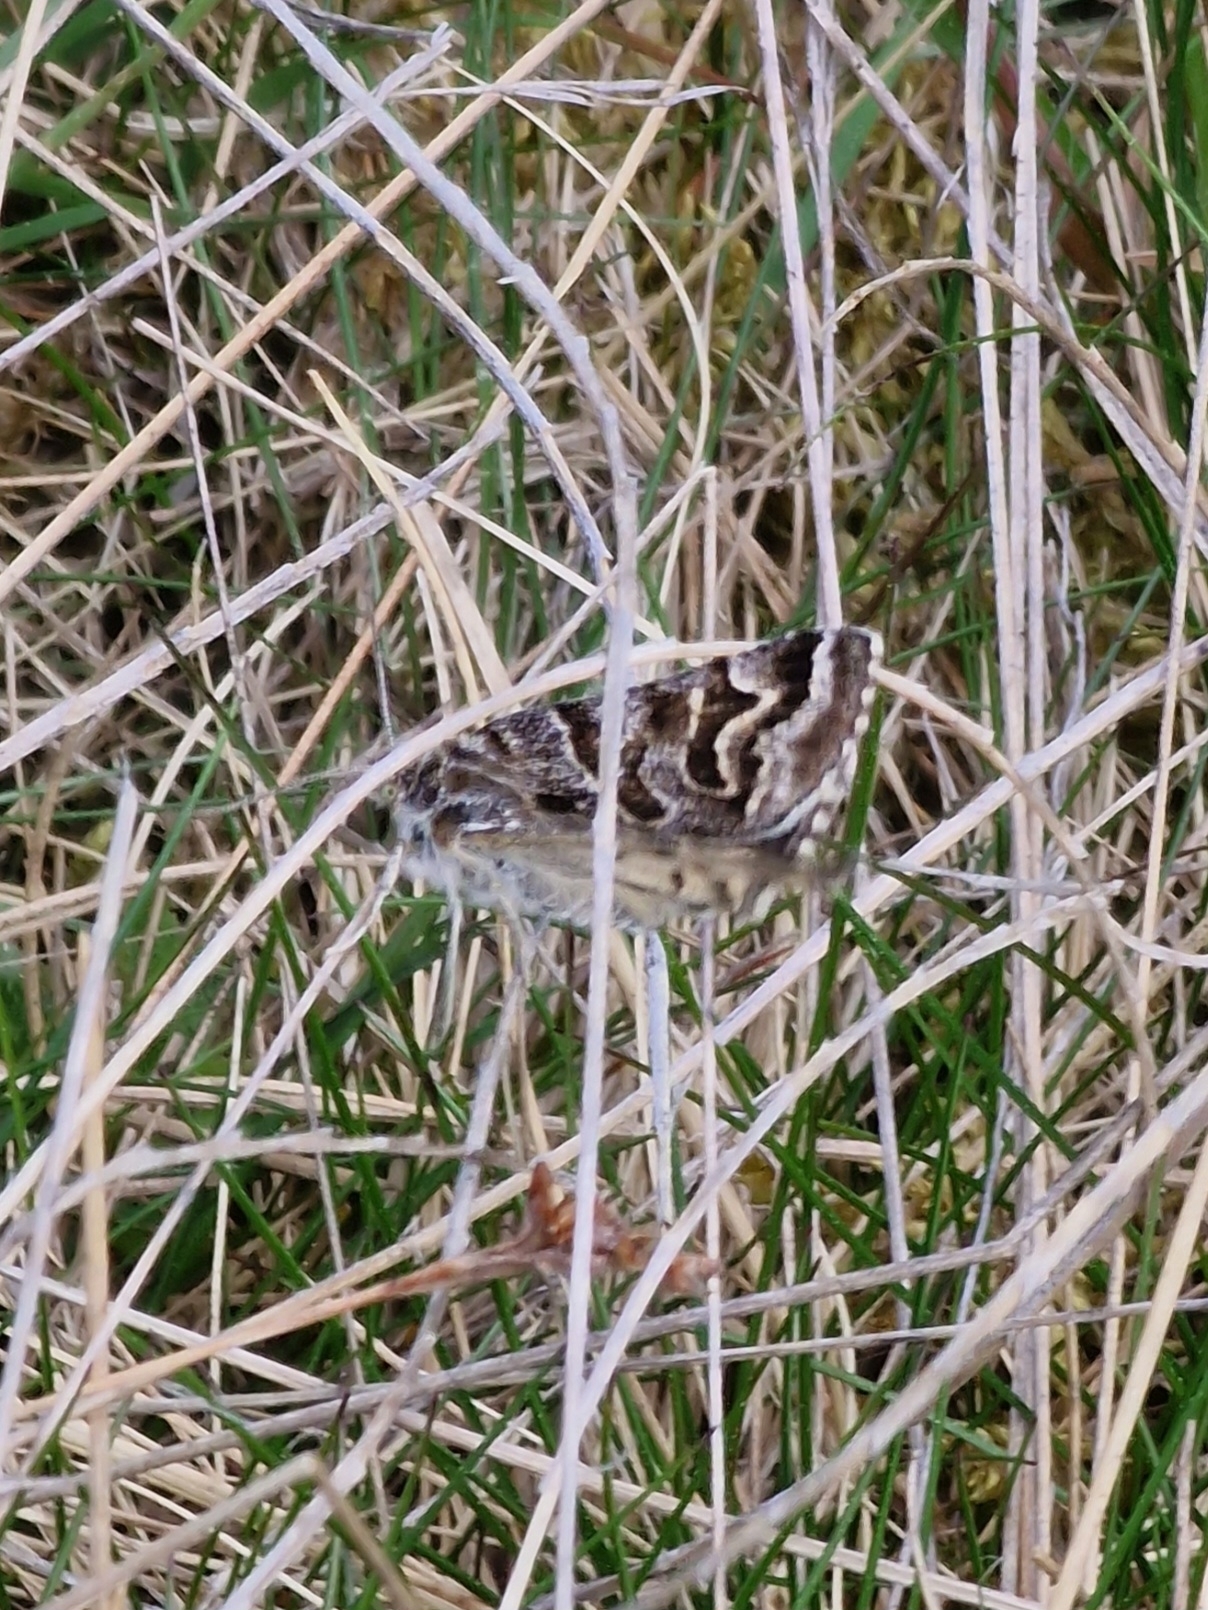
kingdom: Animalia
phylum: Arthropoda
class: Insecta
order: Lepidoptera
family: Erebidae
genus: Callistege
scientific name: Callistege mi
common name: Mother shipton
